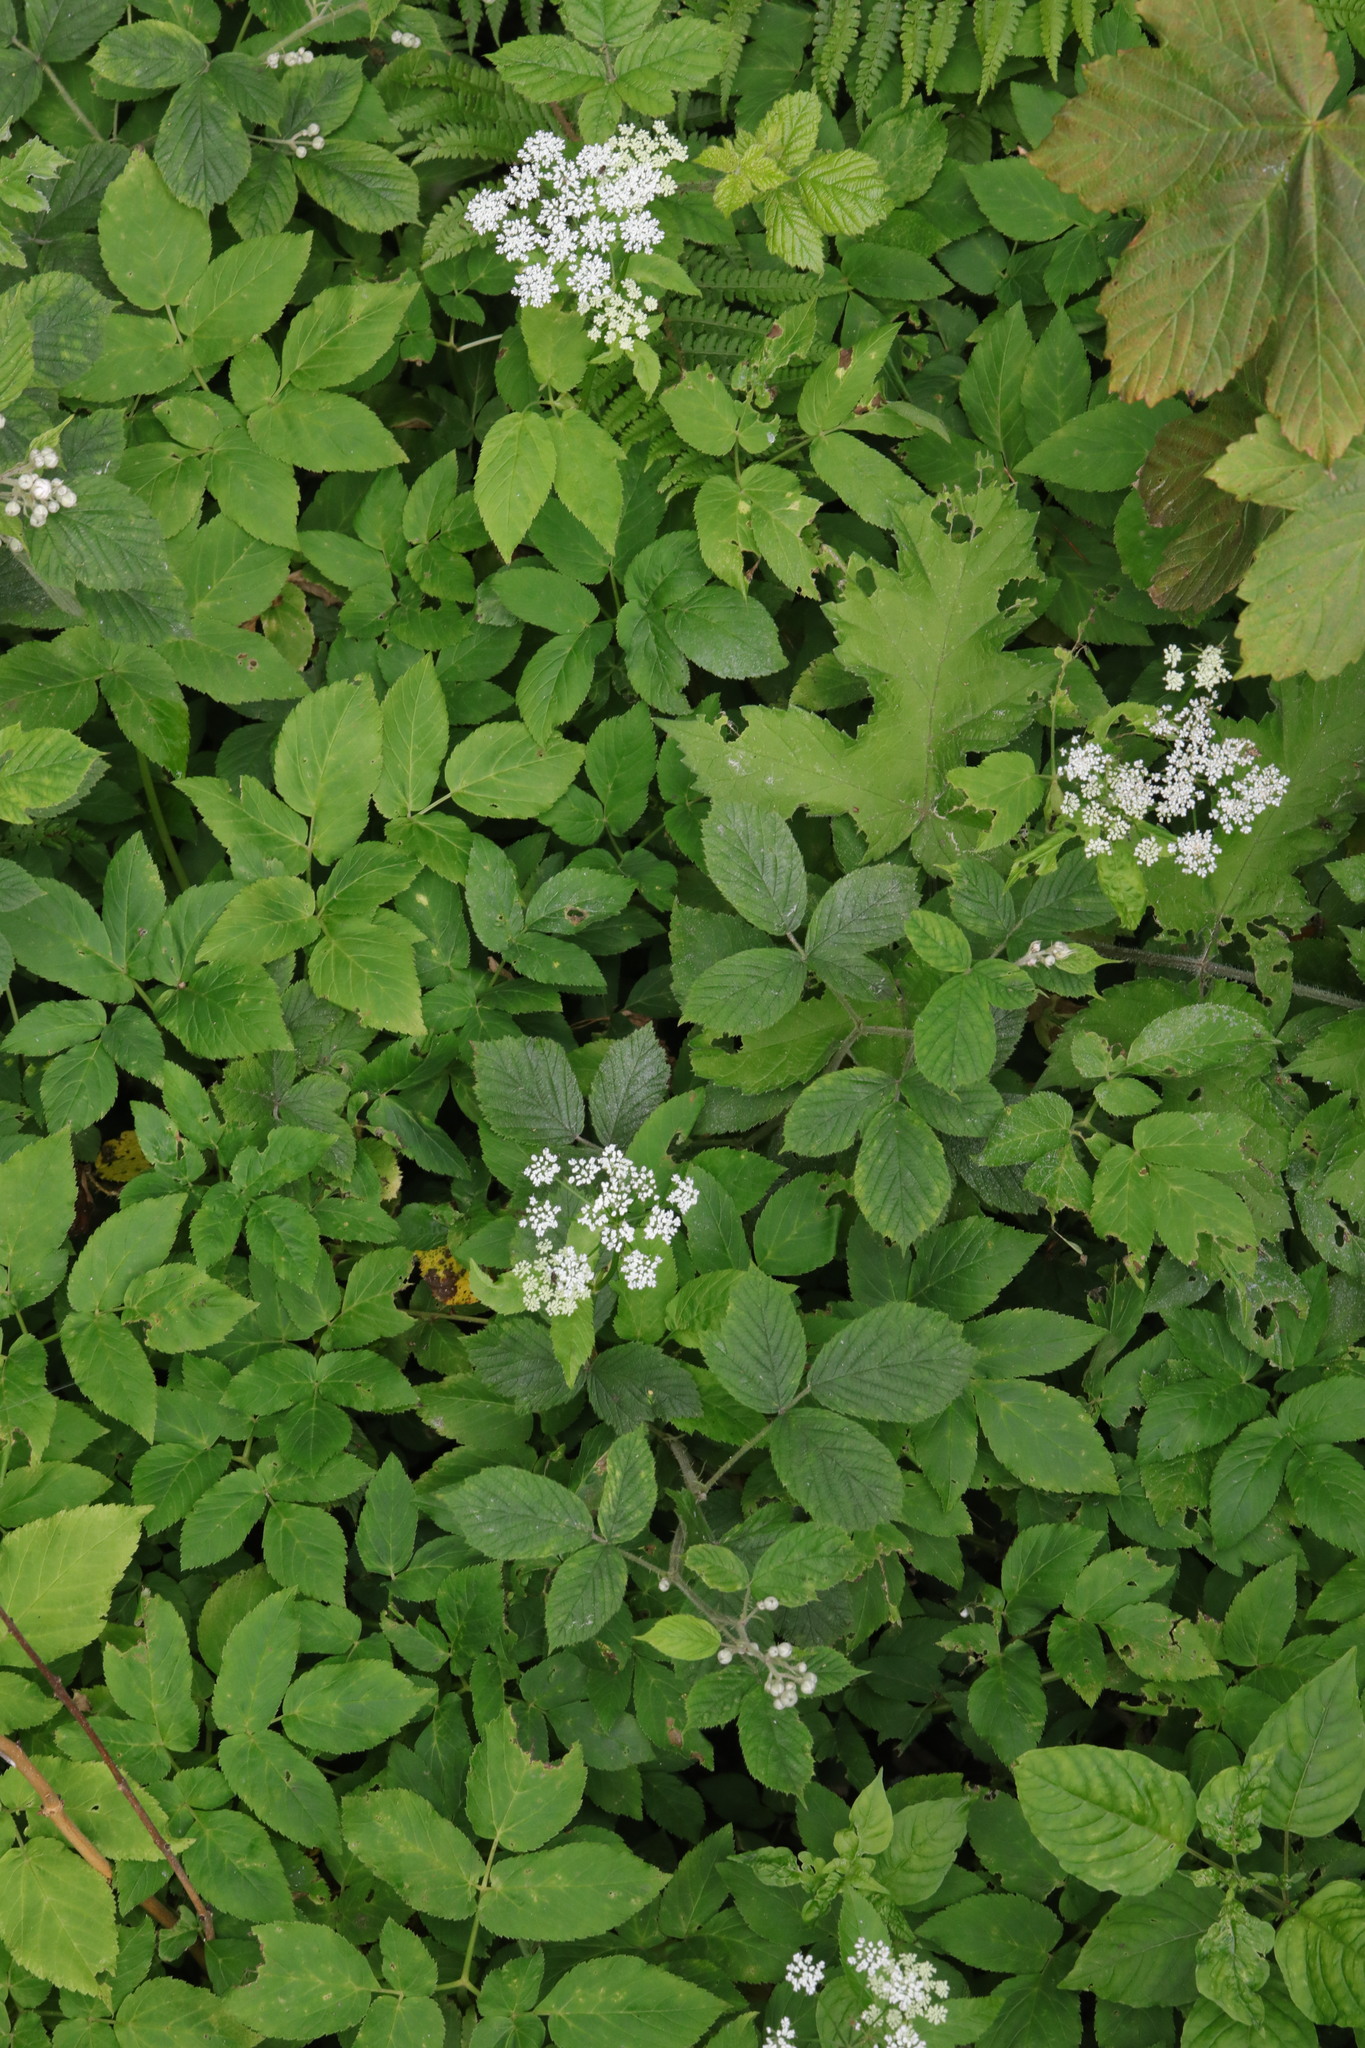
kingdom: Plantae
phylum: Tracheophyta
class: Magnoliopsida
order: Apiales
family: Apiaceae
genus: Aegopodium
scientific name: Aegopodium podagraria
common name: Ground-elder
